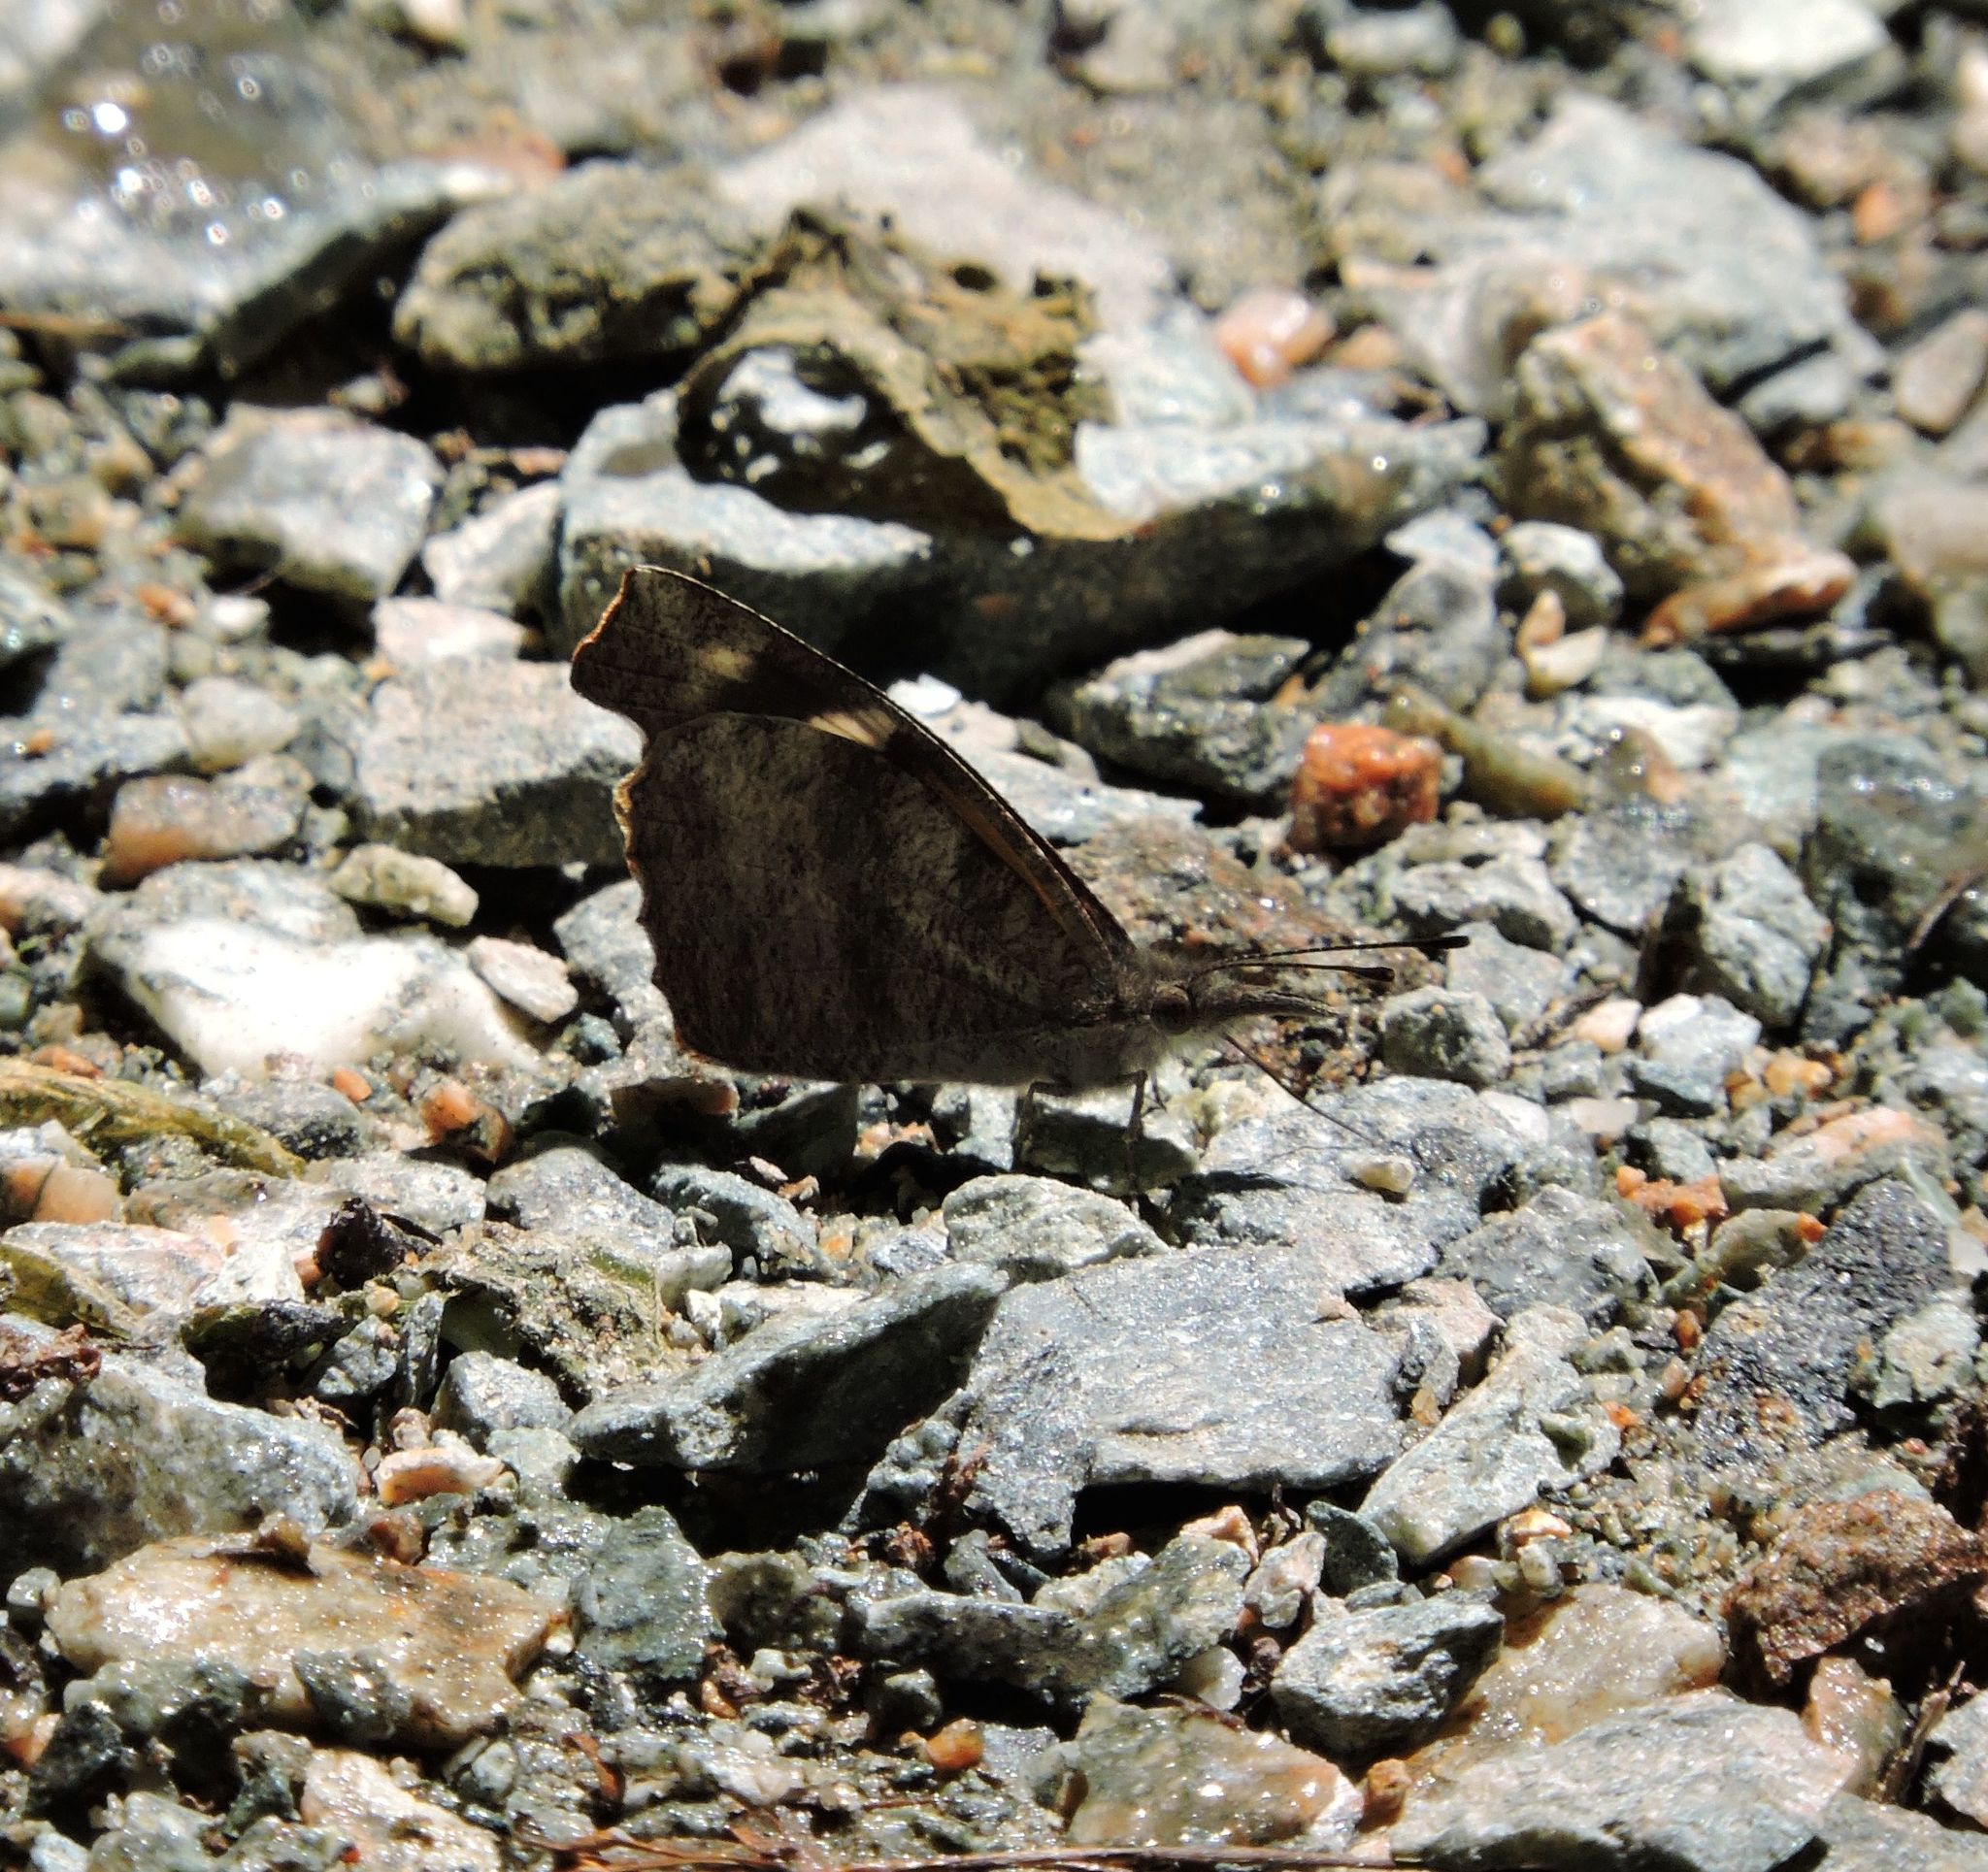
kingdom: Animalia
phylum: Arthropoda
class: Insecta
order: Lepidoptera
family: Nymphalidae
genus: Libytheana
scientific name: Libytheana carinenta
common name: American snout
